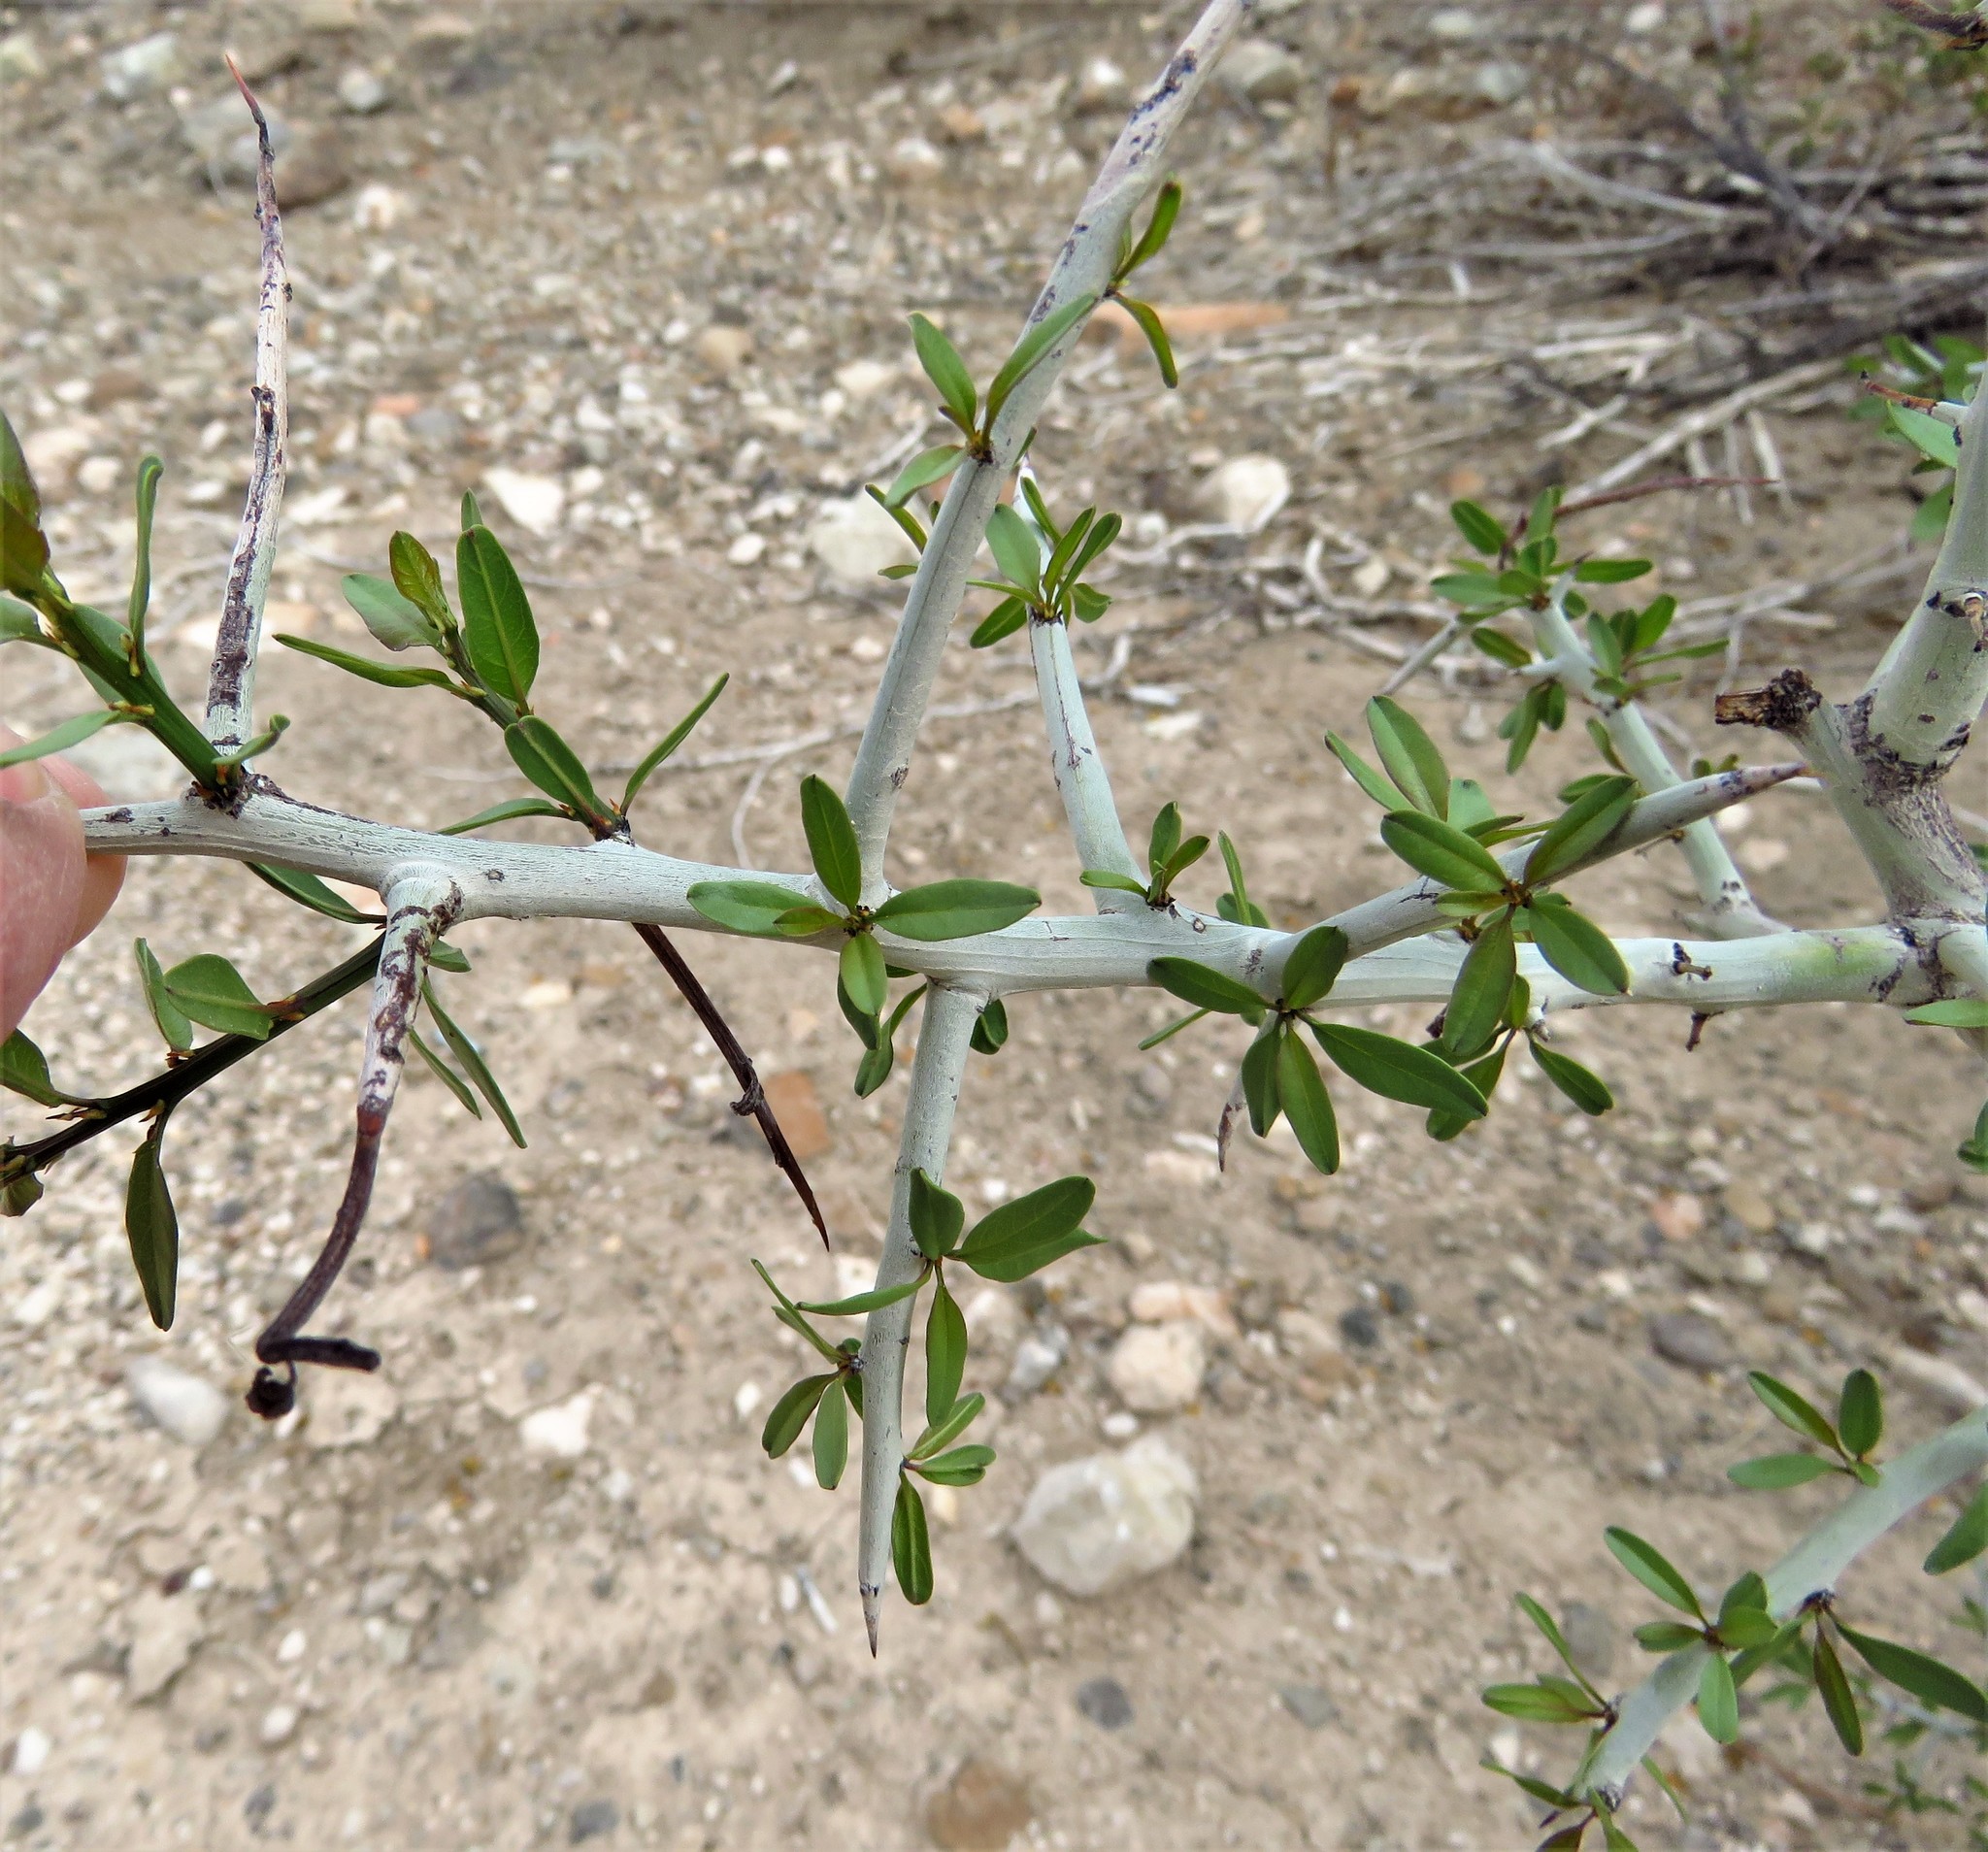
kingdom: Plantae
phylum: Tracheophyta
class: Magnoliopsida
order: Rosales
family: Rhamnaceae
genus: Sarcomphalus
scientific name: Sarcomphalus obtusifolius
